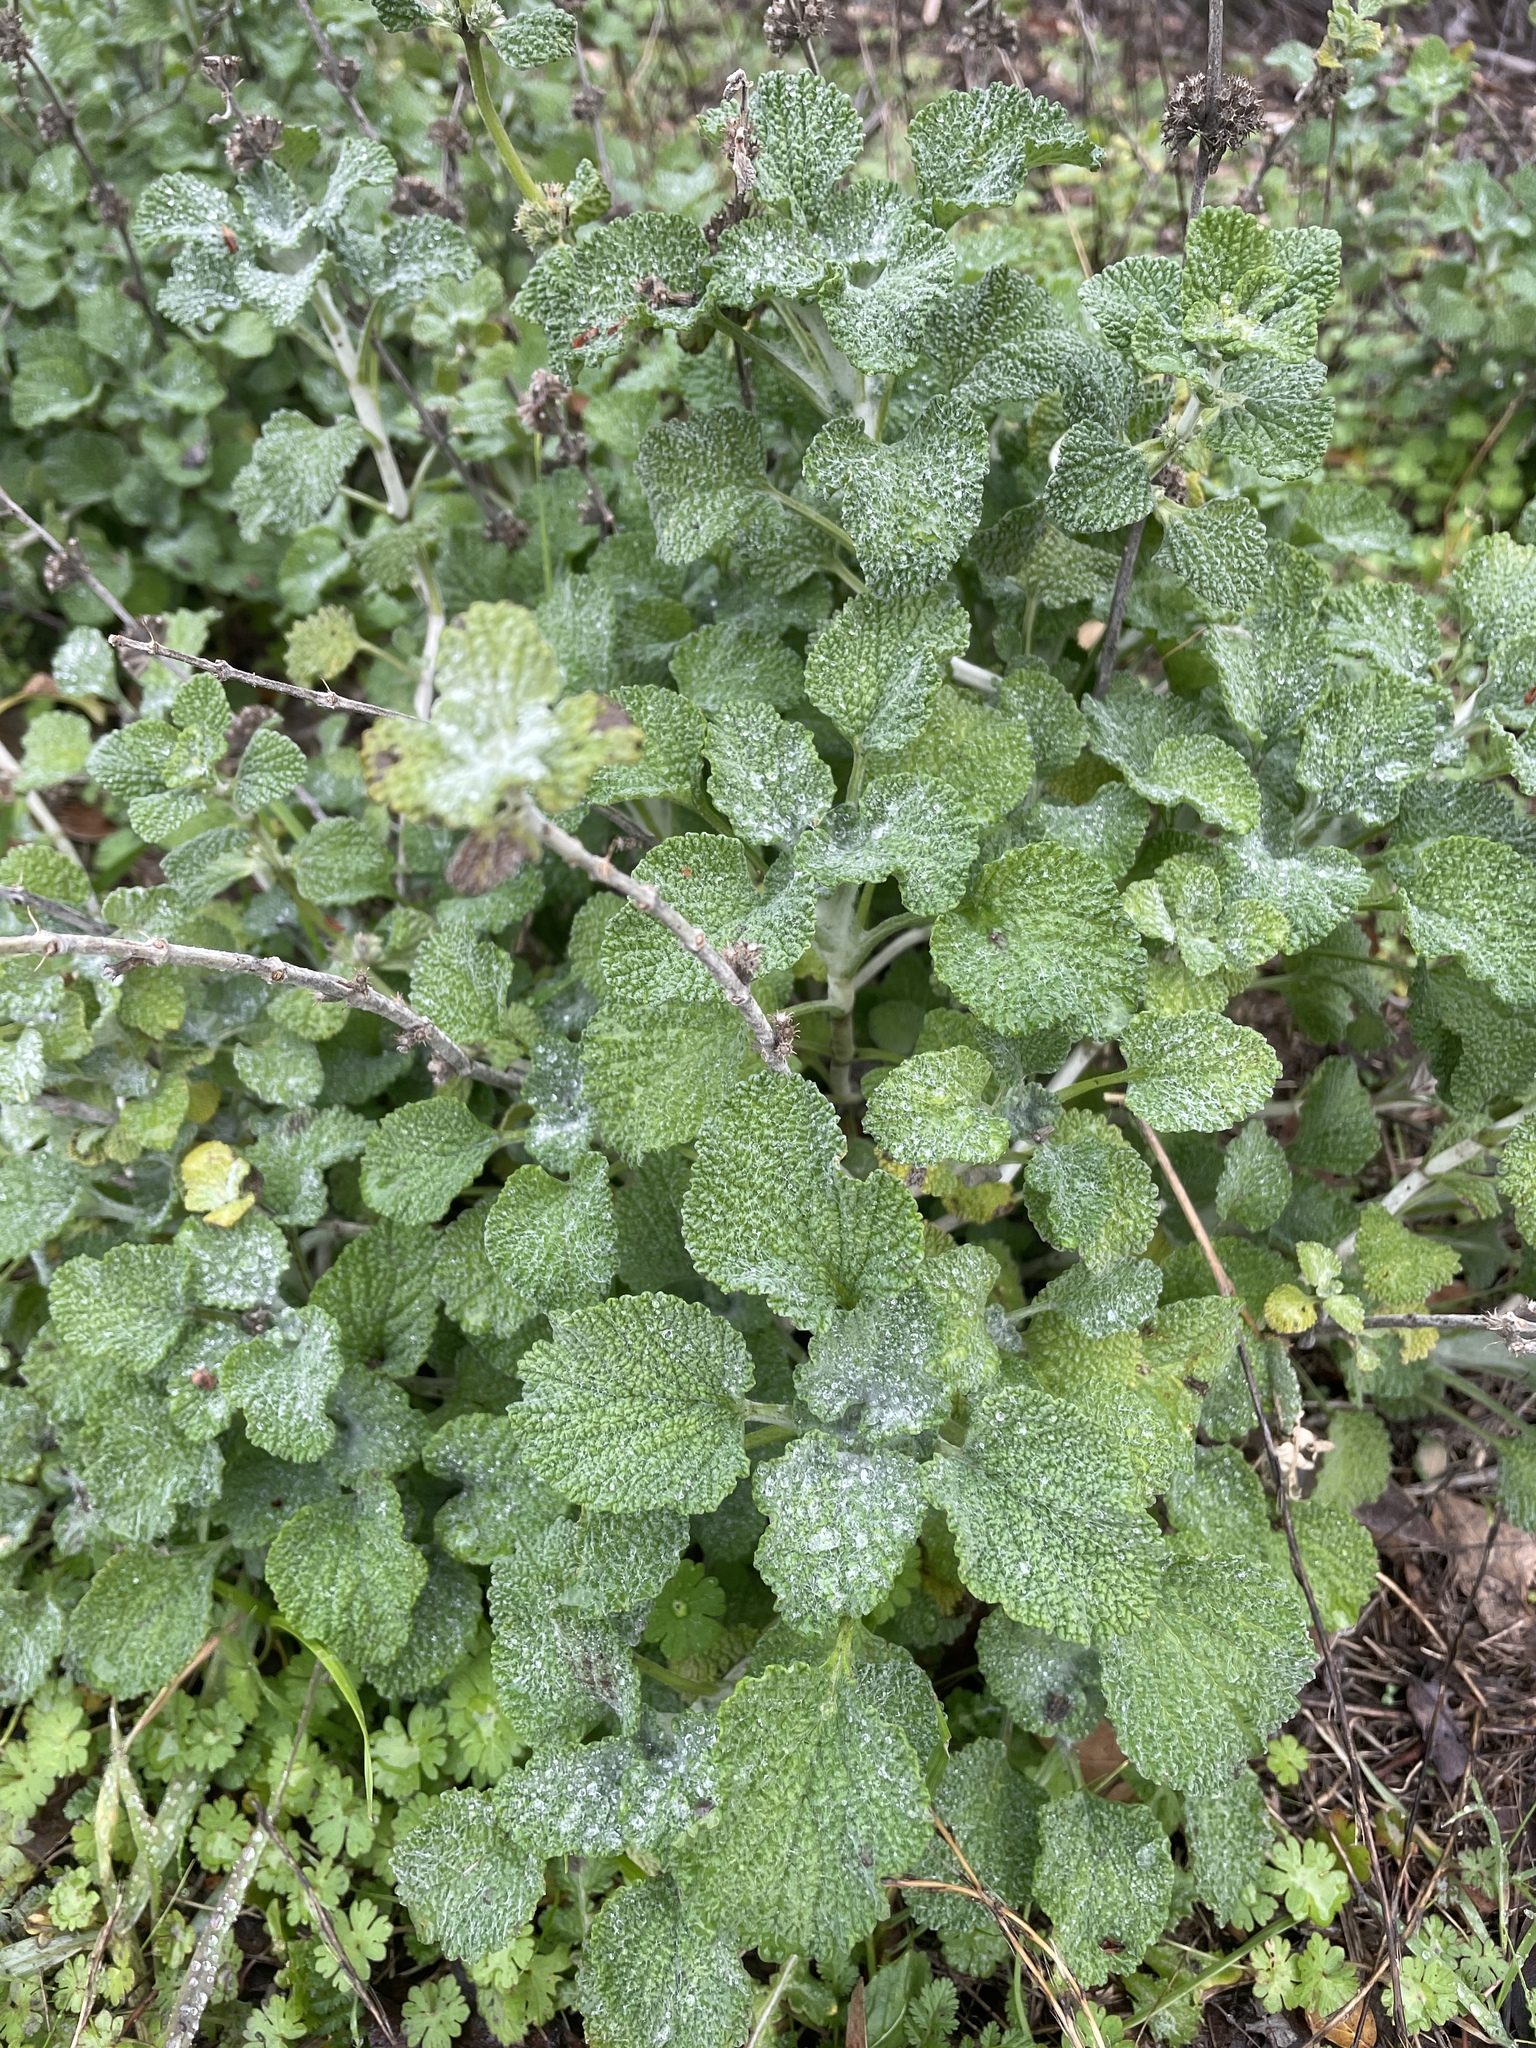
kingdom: Plantae
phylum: Tracheophyta
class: Magnoliopsida
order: Lamiales
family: Lamiaceae
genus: Marrubium
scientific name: Marrubium vulgare
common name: Horehound
